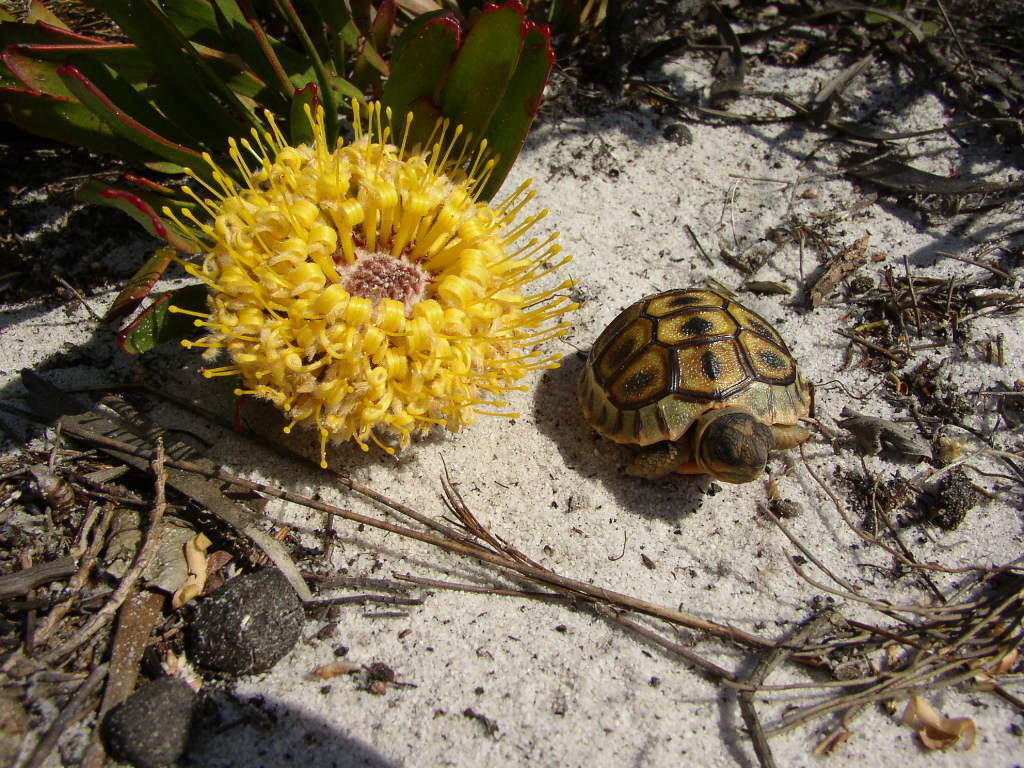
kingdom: Plantae
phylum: Tracheophyta
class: Magnoliopsida
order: Proteales
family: Proteaceae
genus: Leucospermum
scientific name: Leucospermum hypophyllocarpodendron
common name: Snakestem pincushion
